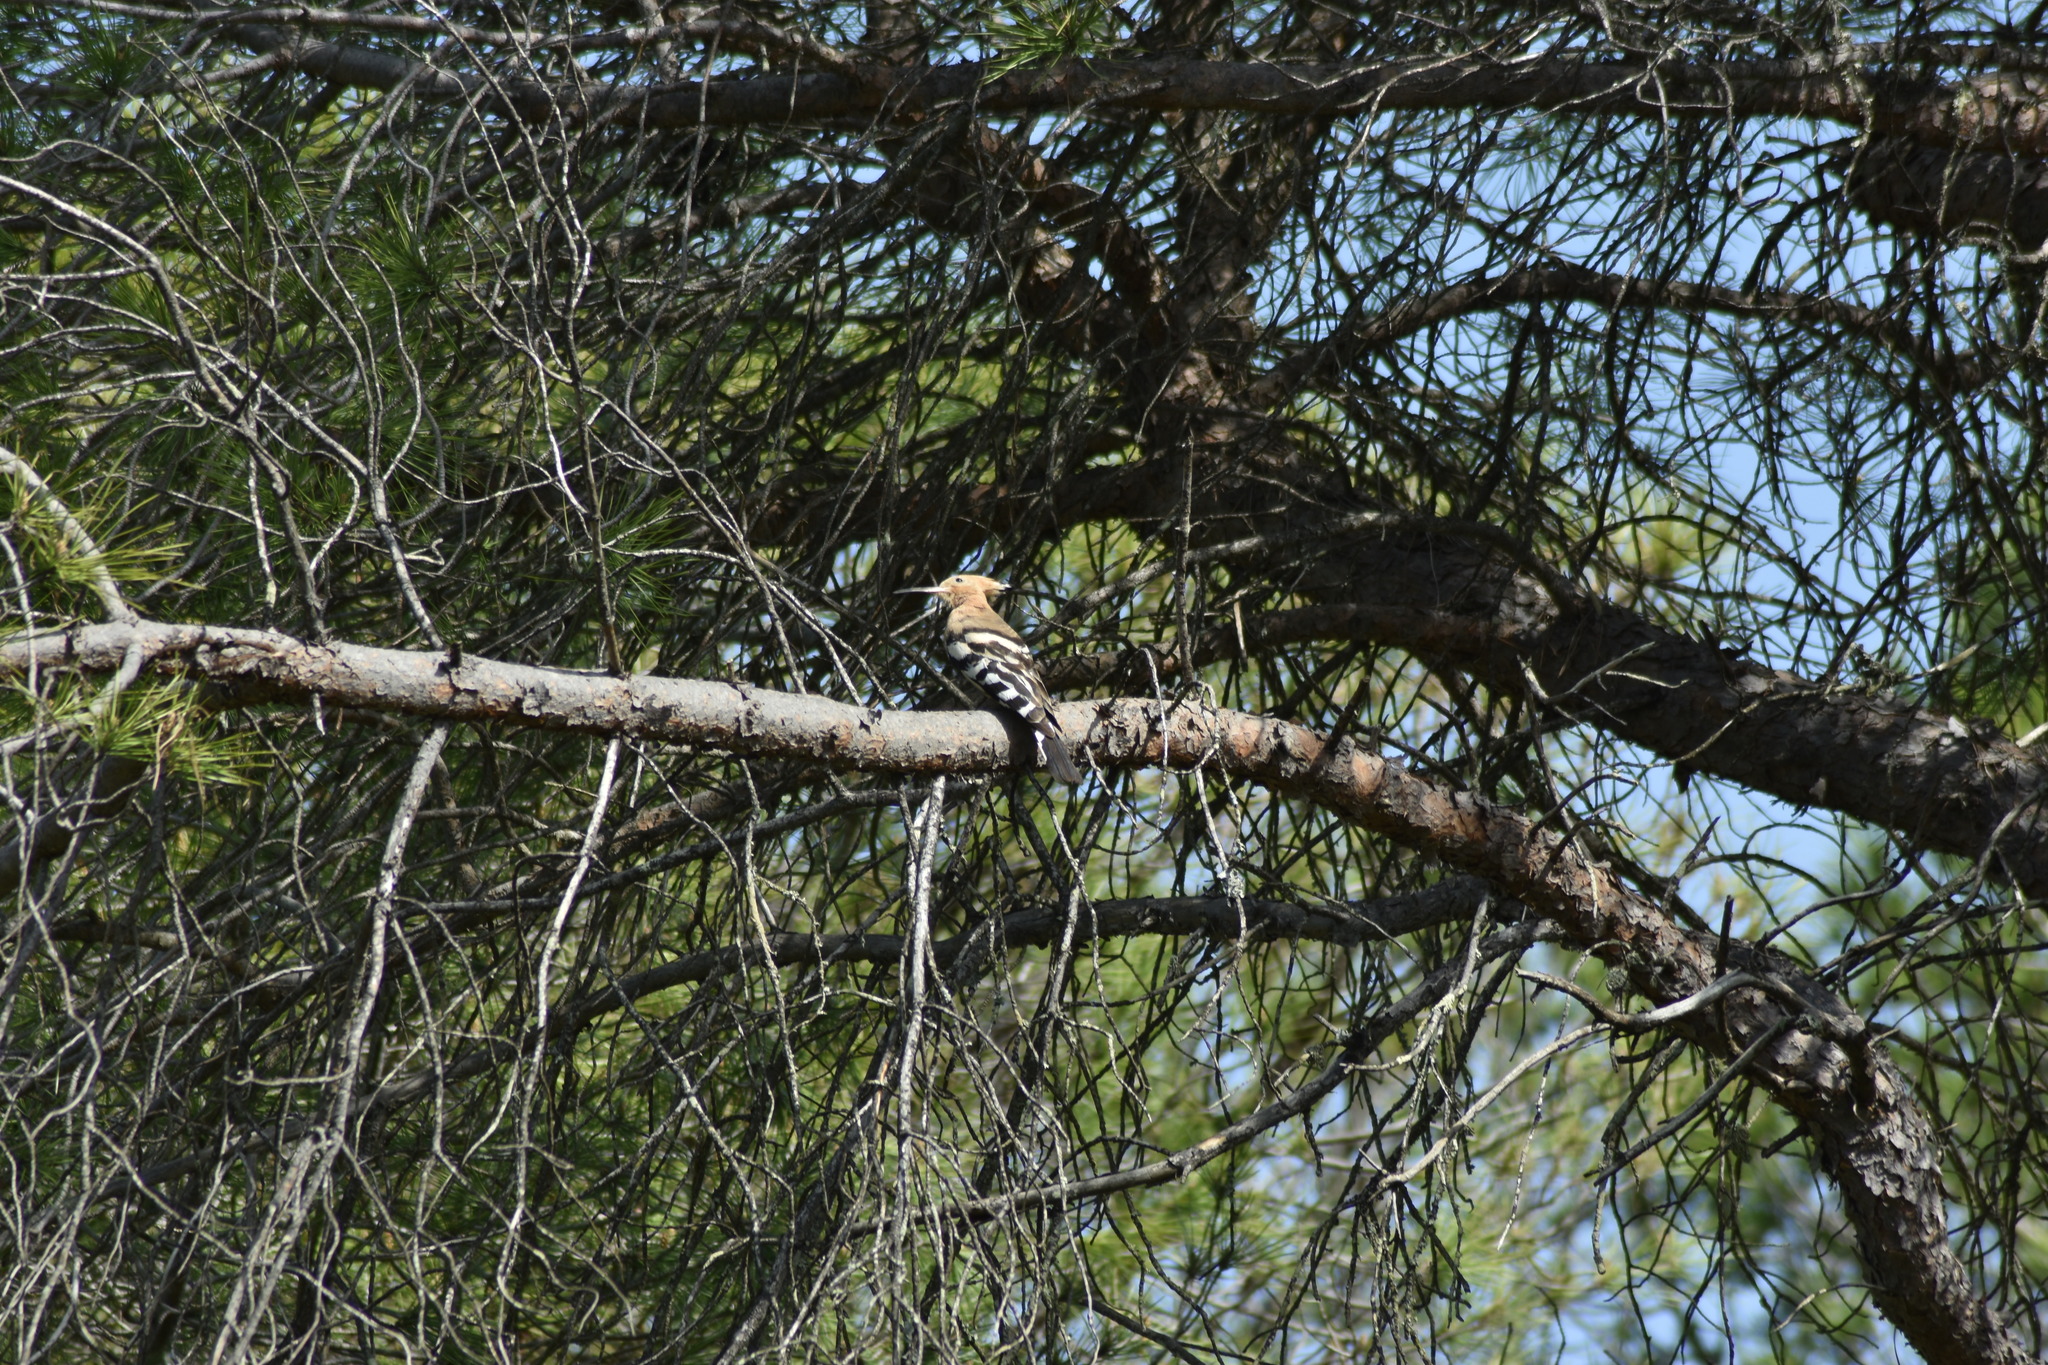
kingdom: Animalia
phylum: Chordata
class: Aves
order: Bucerotiformes
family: Upupidae
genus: Upupa
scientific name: Upupa epops
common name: Eurasian hoopoe
